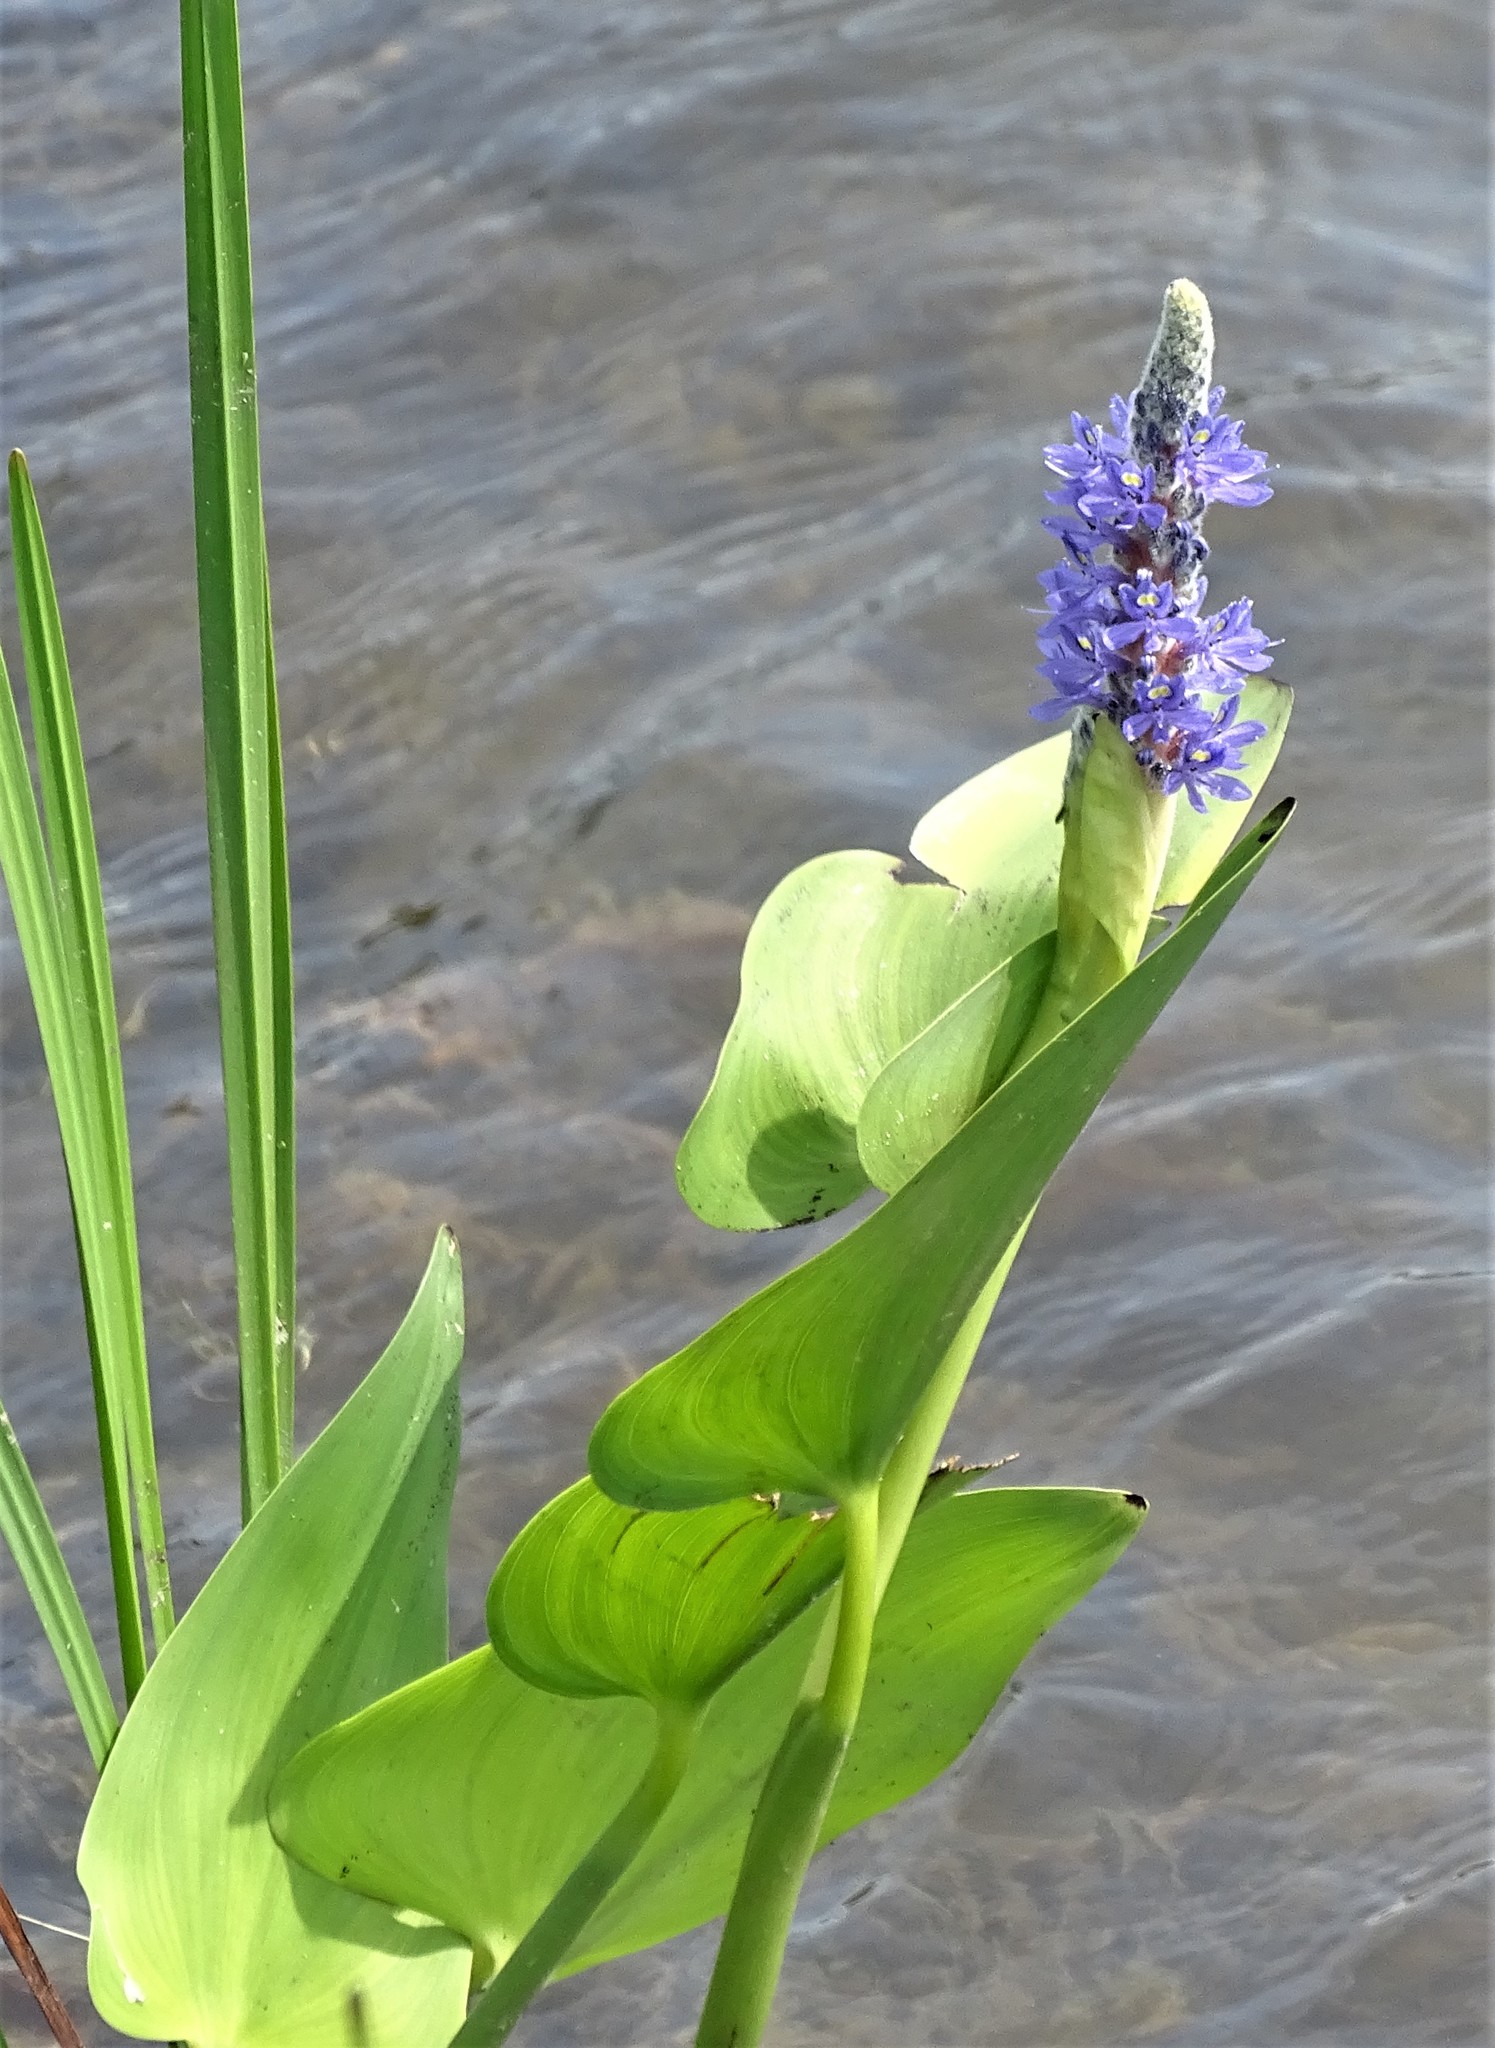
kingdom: Plantae
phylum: Tracheophyta
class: Liliopsida
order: Commelinales
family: Pontederiaceae
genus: Pontederia
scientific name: Pontederia cordata
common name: Pickerelweed
